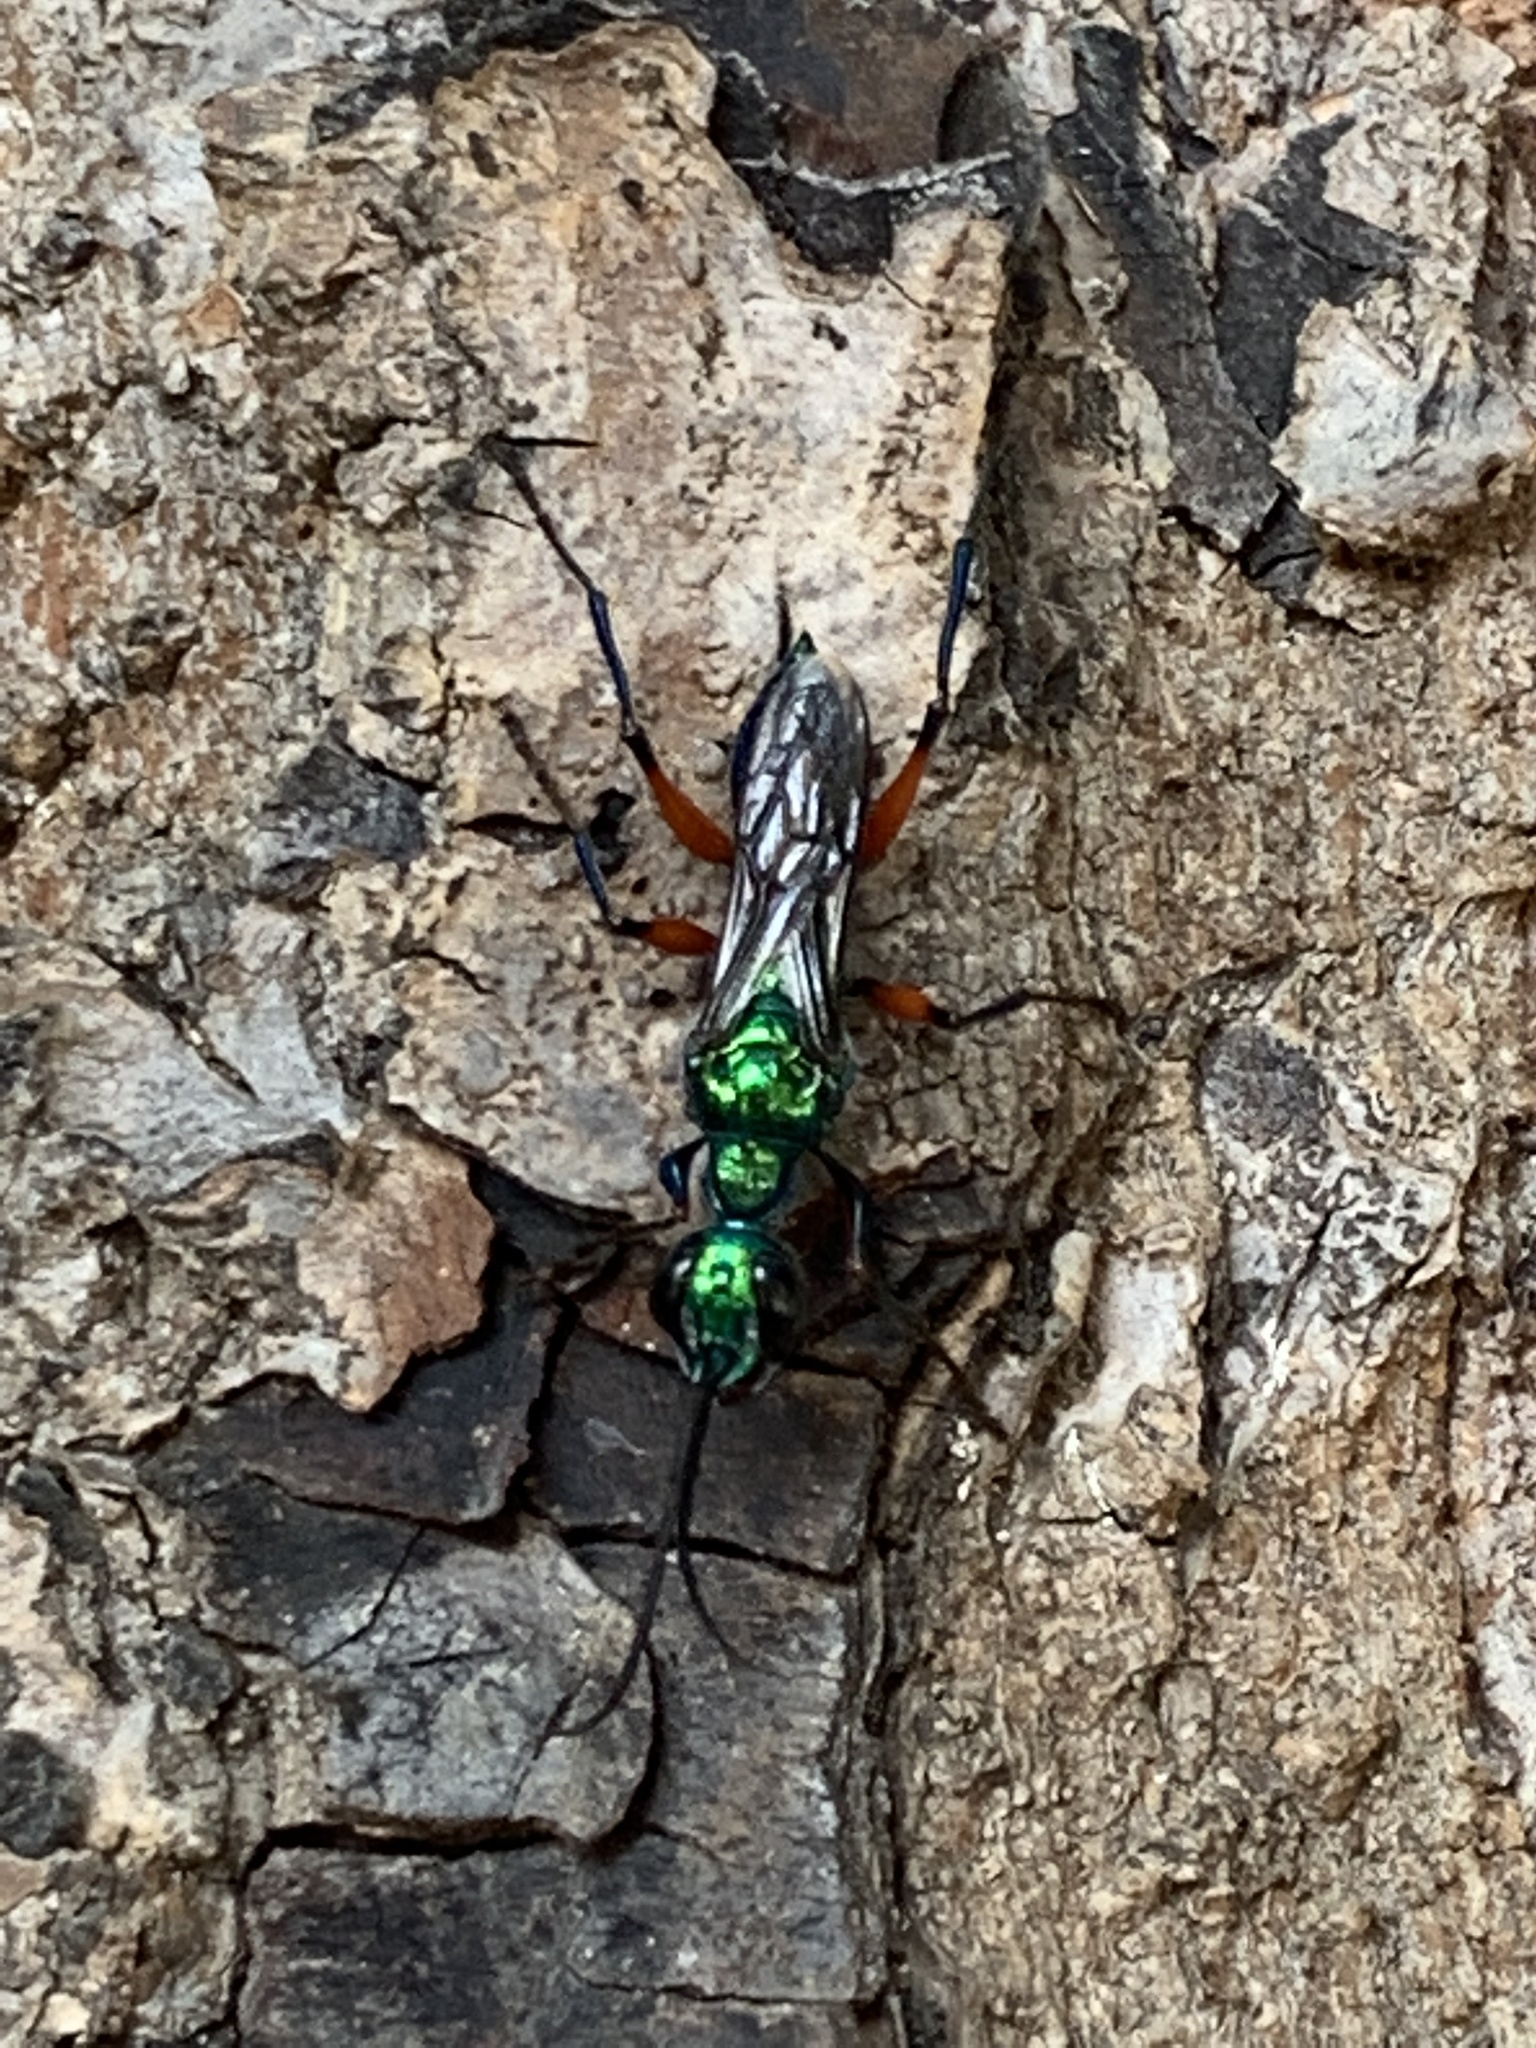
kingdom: Animalia
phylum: Arthropoda
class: Insecta
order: Hymenoptera
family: Ampulicidae
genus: Ampulex
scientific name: Ampulex compressa
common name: Emerald cockroach wasp
